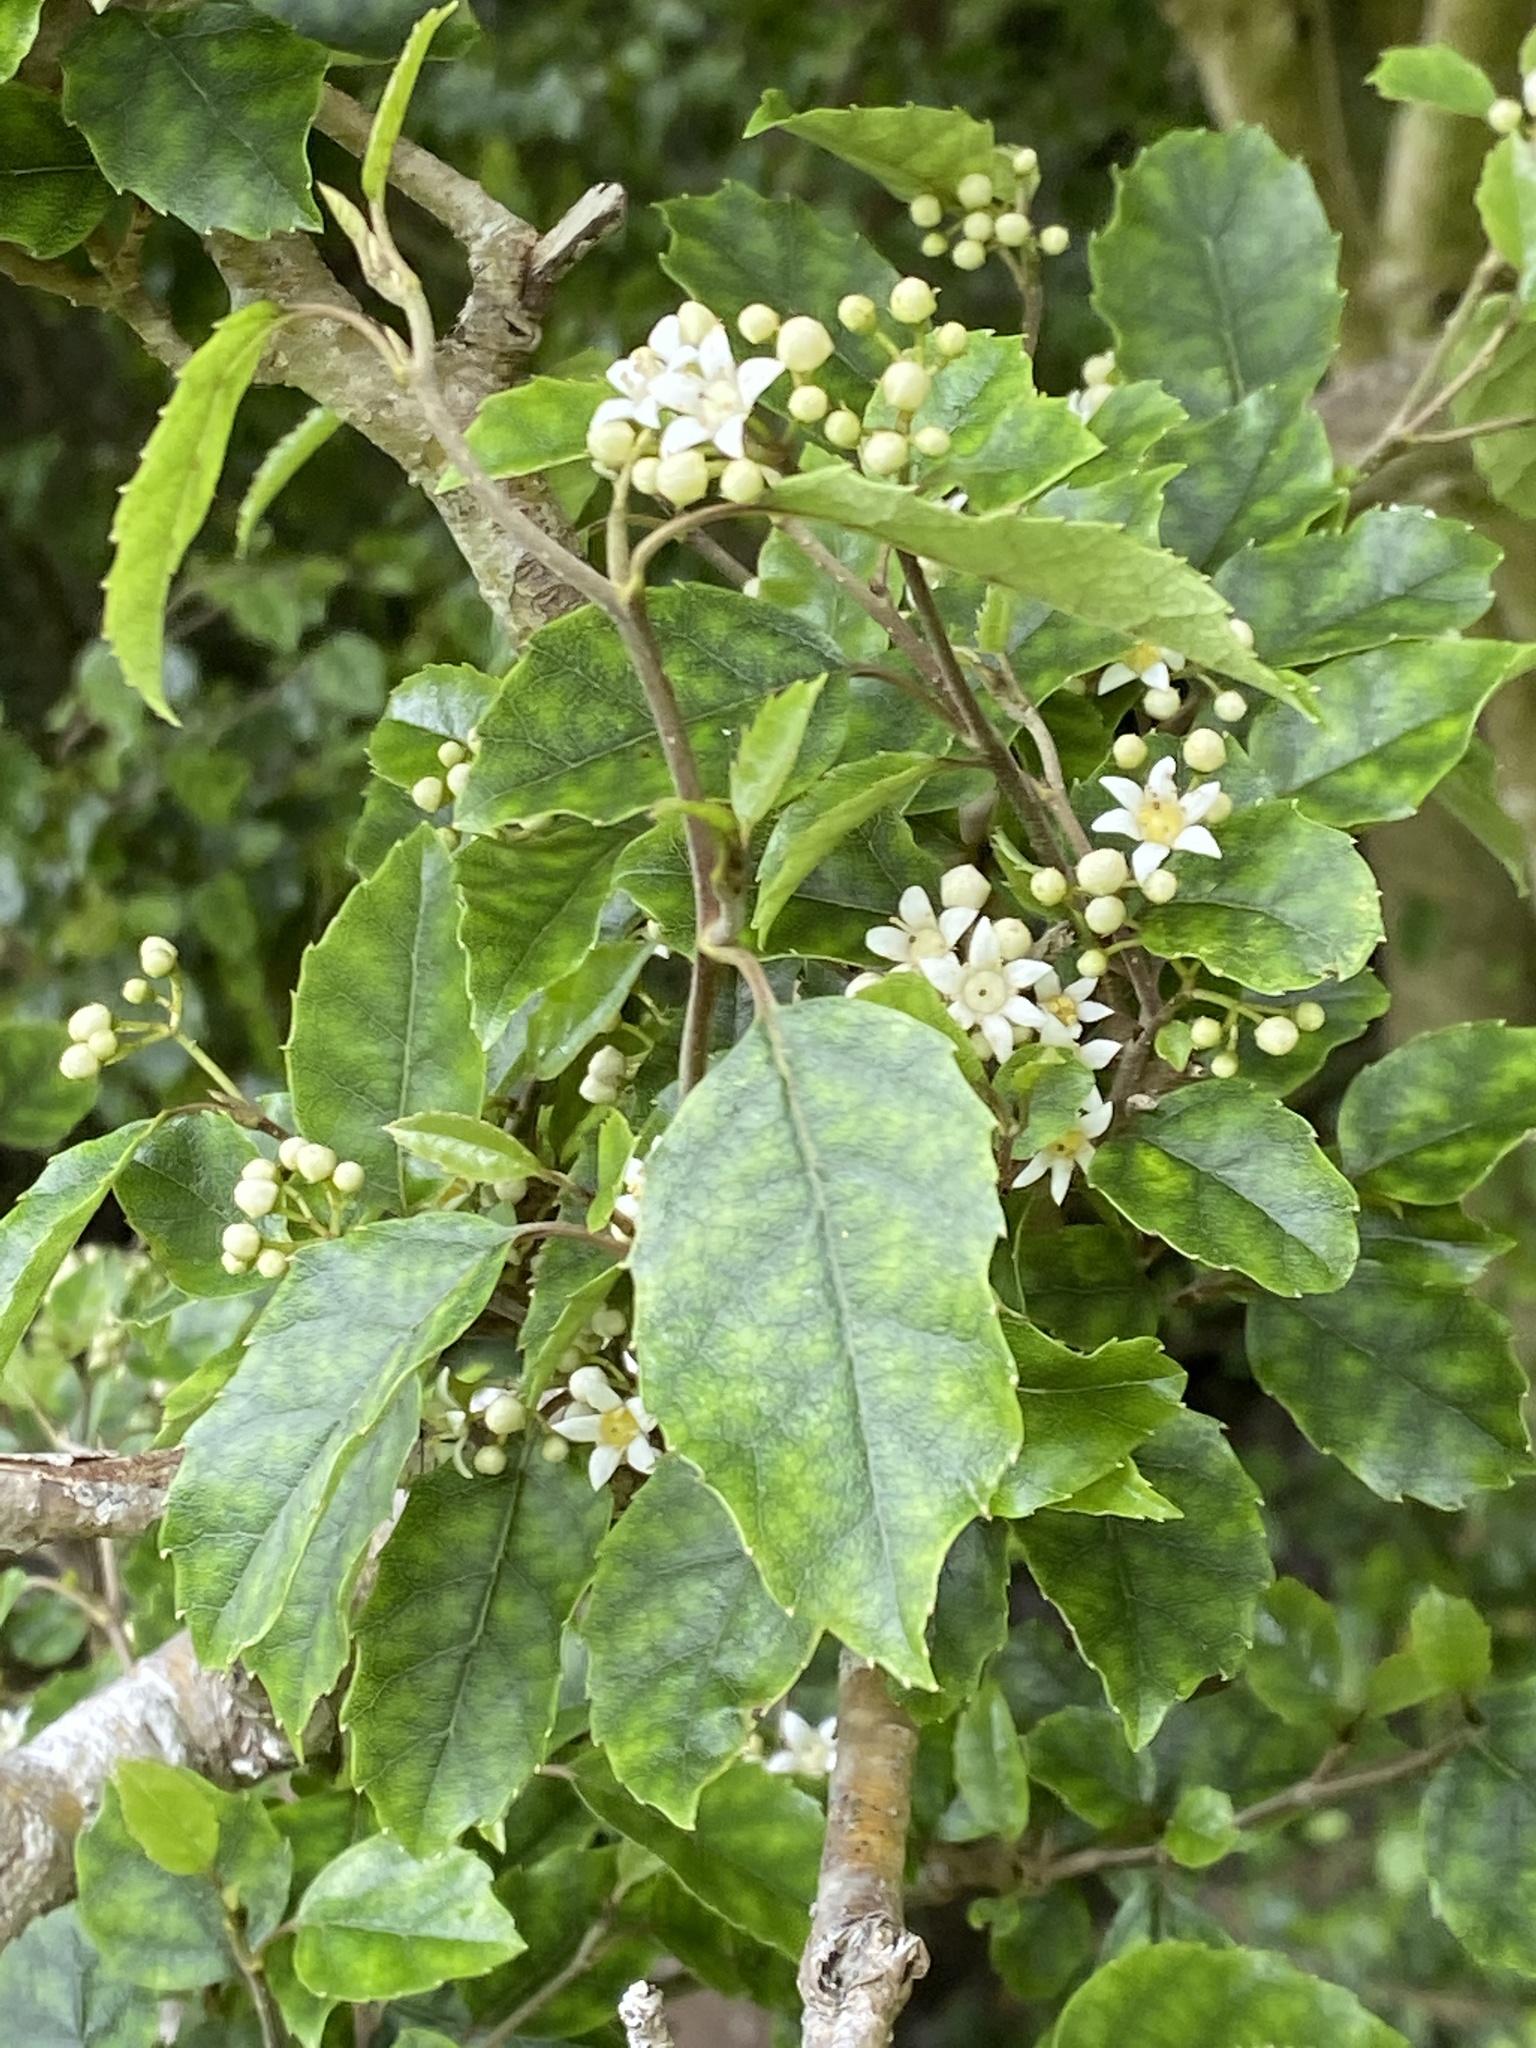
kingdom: Plantae
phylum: Tracheophyta
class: Magnoliopsida
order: Asterales
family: Rousseaceae
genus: Carpodetus
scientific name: Carpodetus serratus
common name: White mapau
